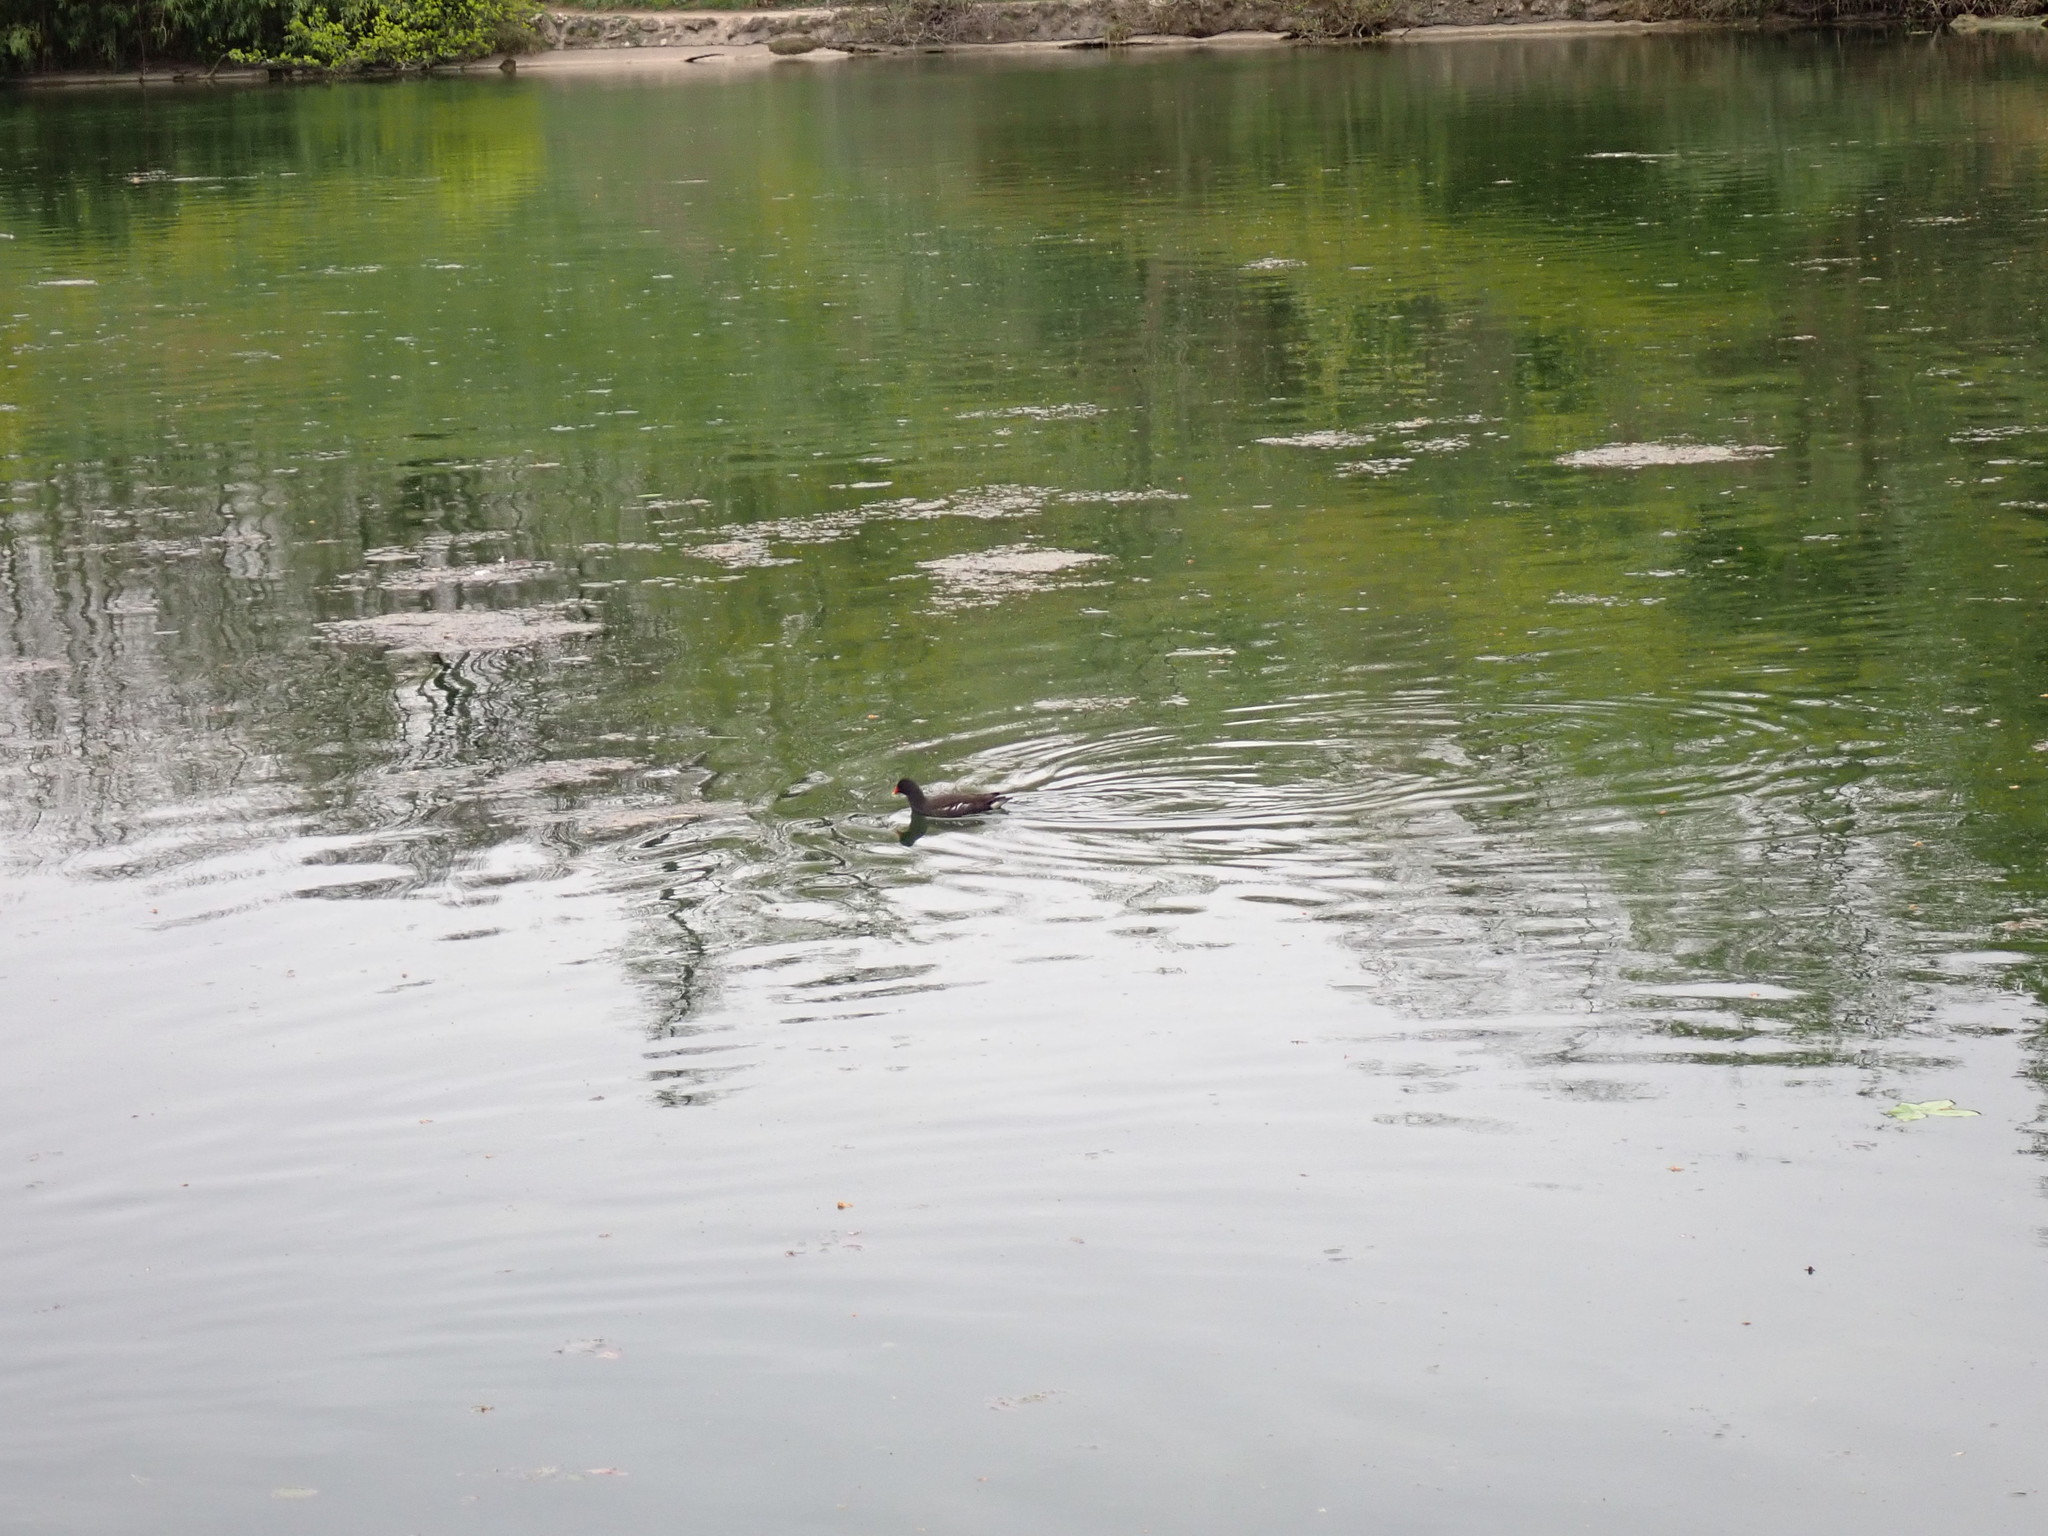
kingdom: Animalia
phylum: Chordata
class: Aves
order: Gruiformes
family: Rallidae
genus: Gallinula
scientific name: Gallinula chloropus
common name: Common moorhen
